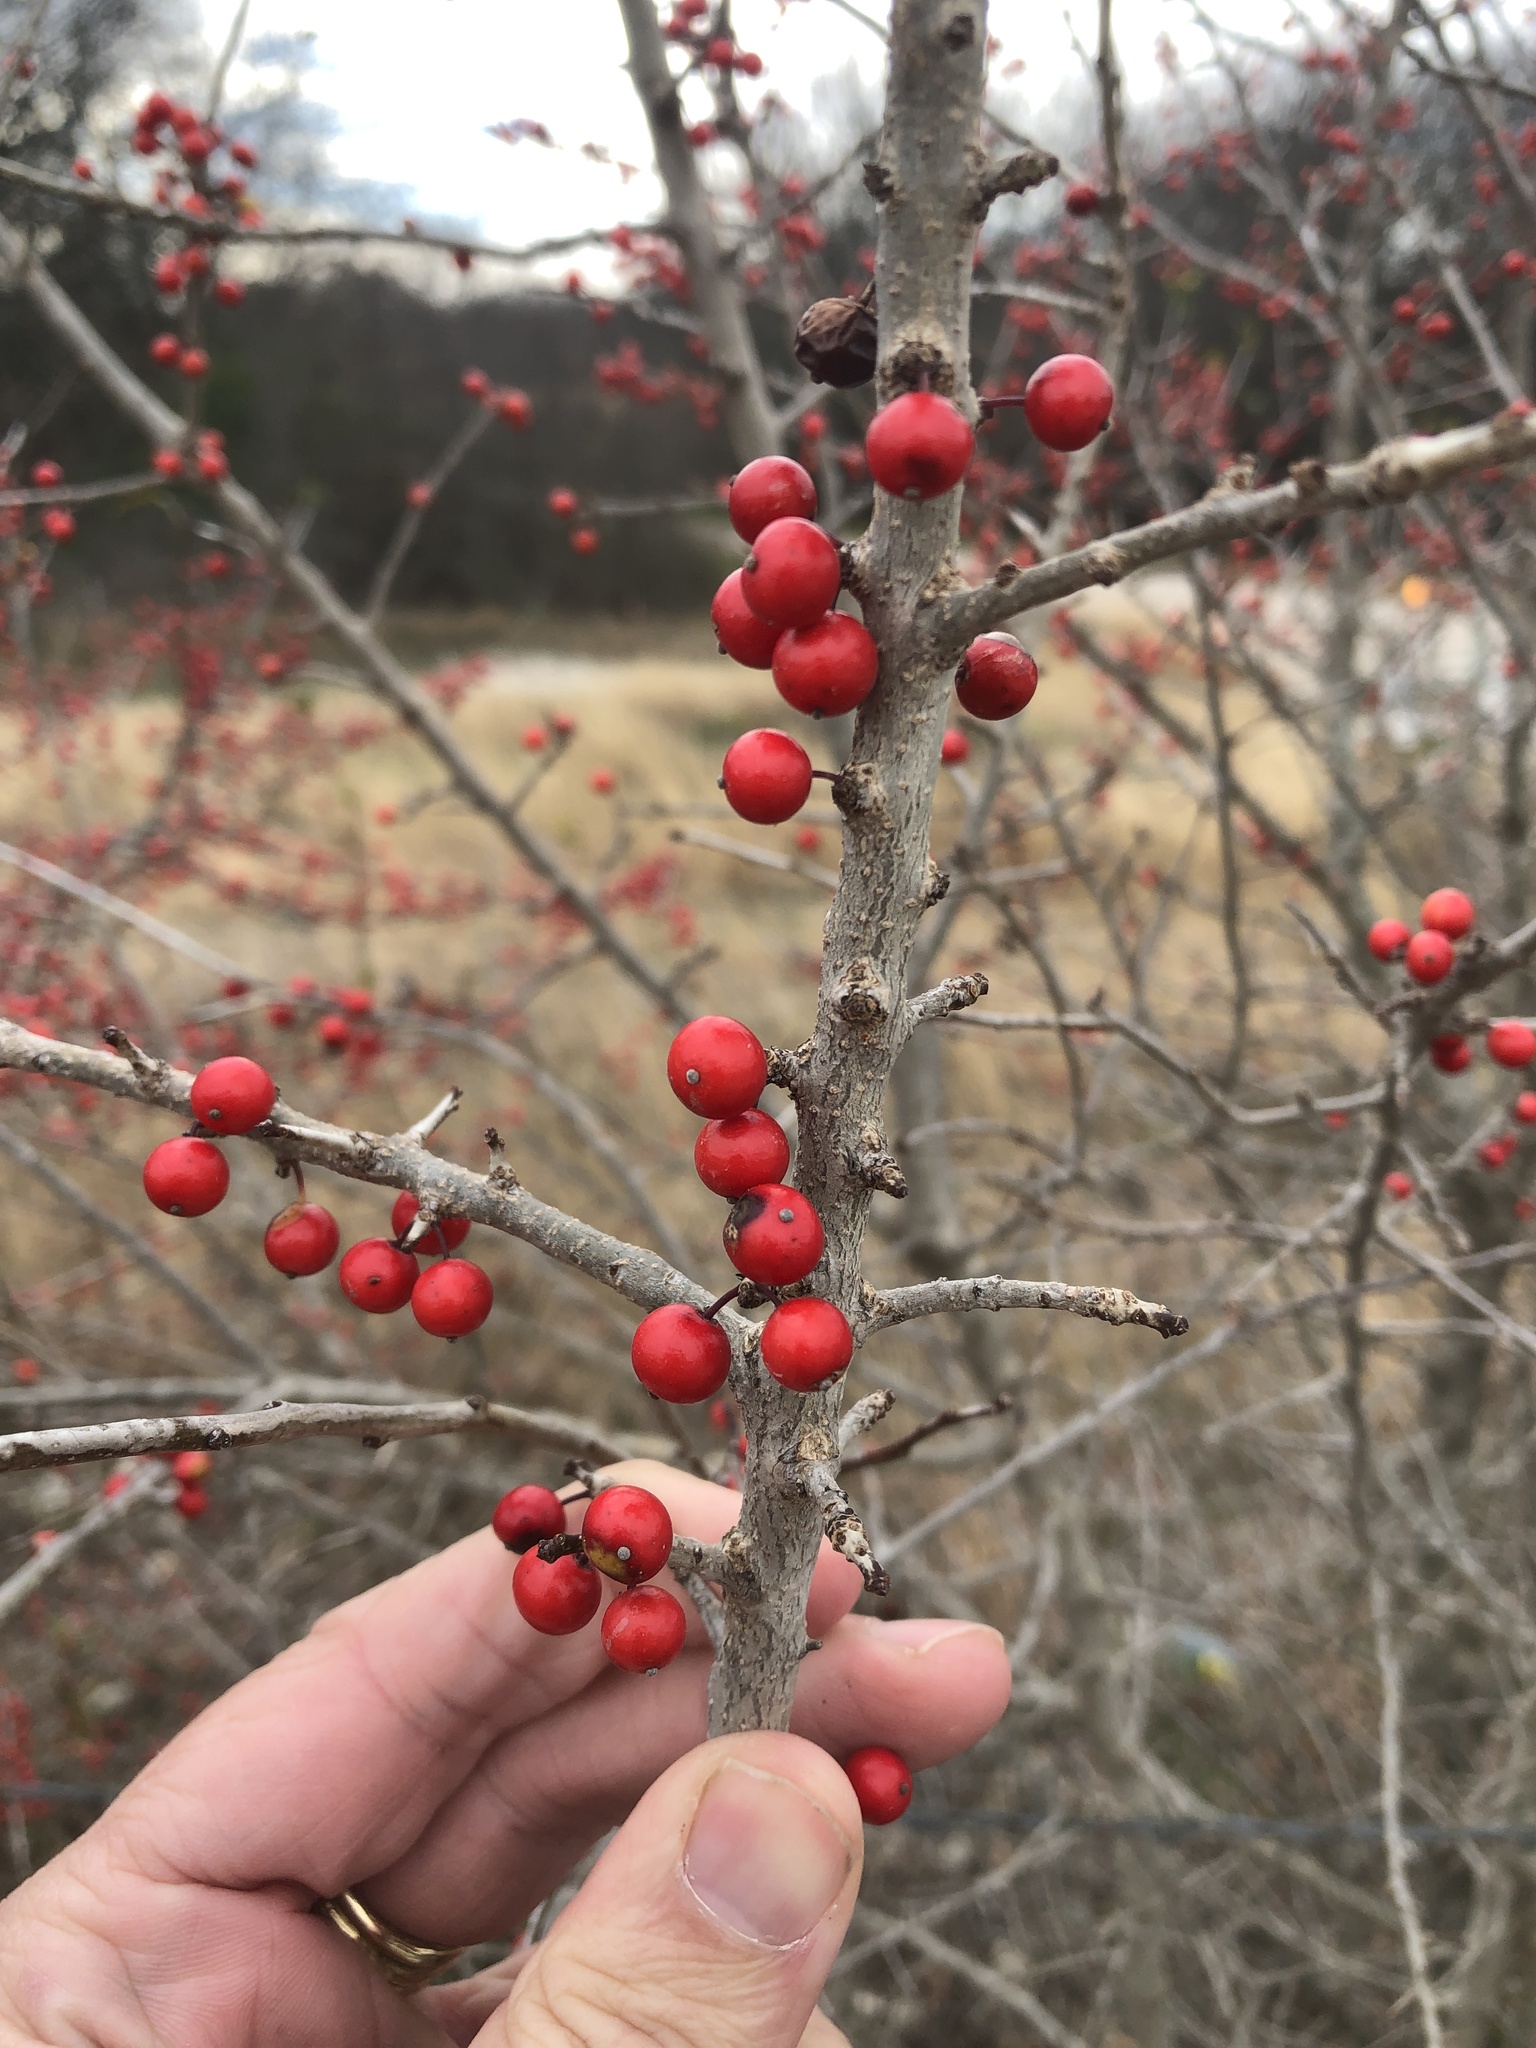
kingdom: Plantae
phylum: Tracheophyta
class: Magnoliopsida
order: Aquifoliales
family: Aquifoliaceae
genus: Ilex
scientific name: Ilex decidua
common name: Possum-haw
